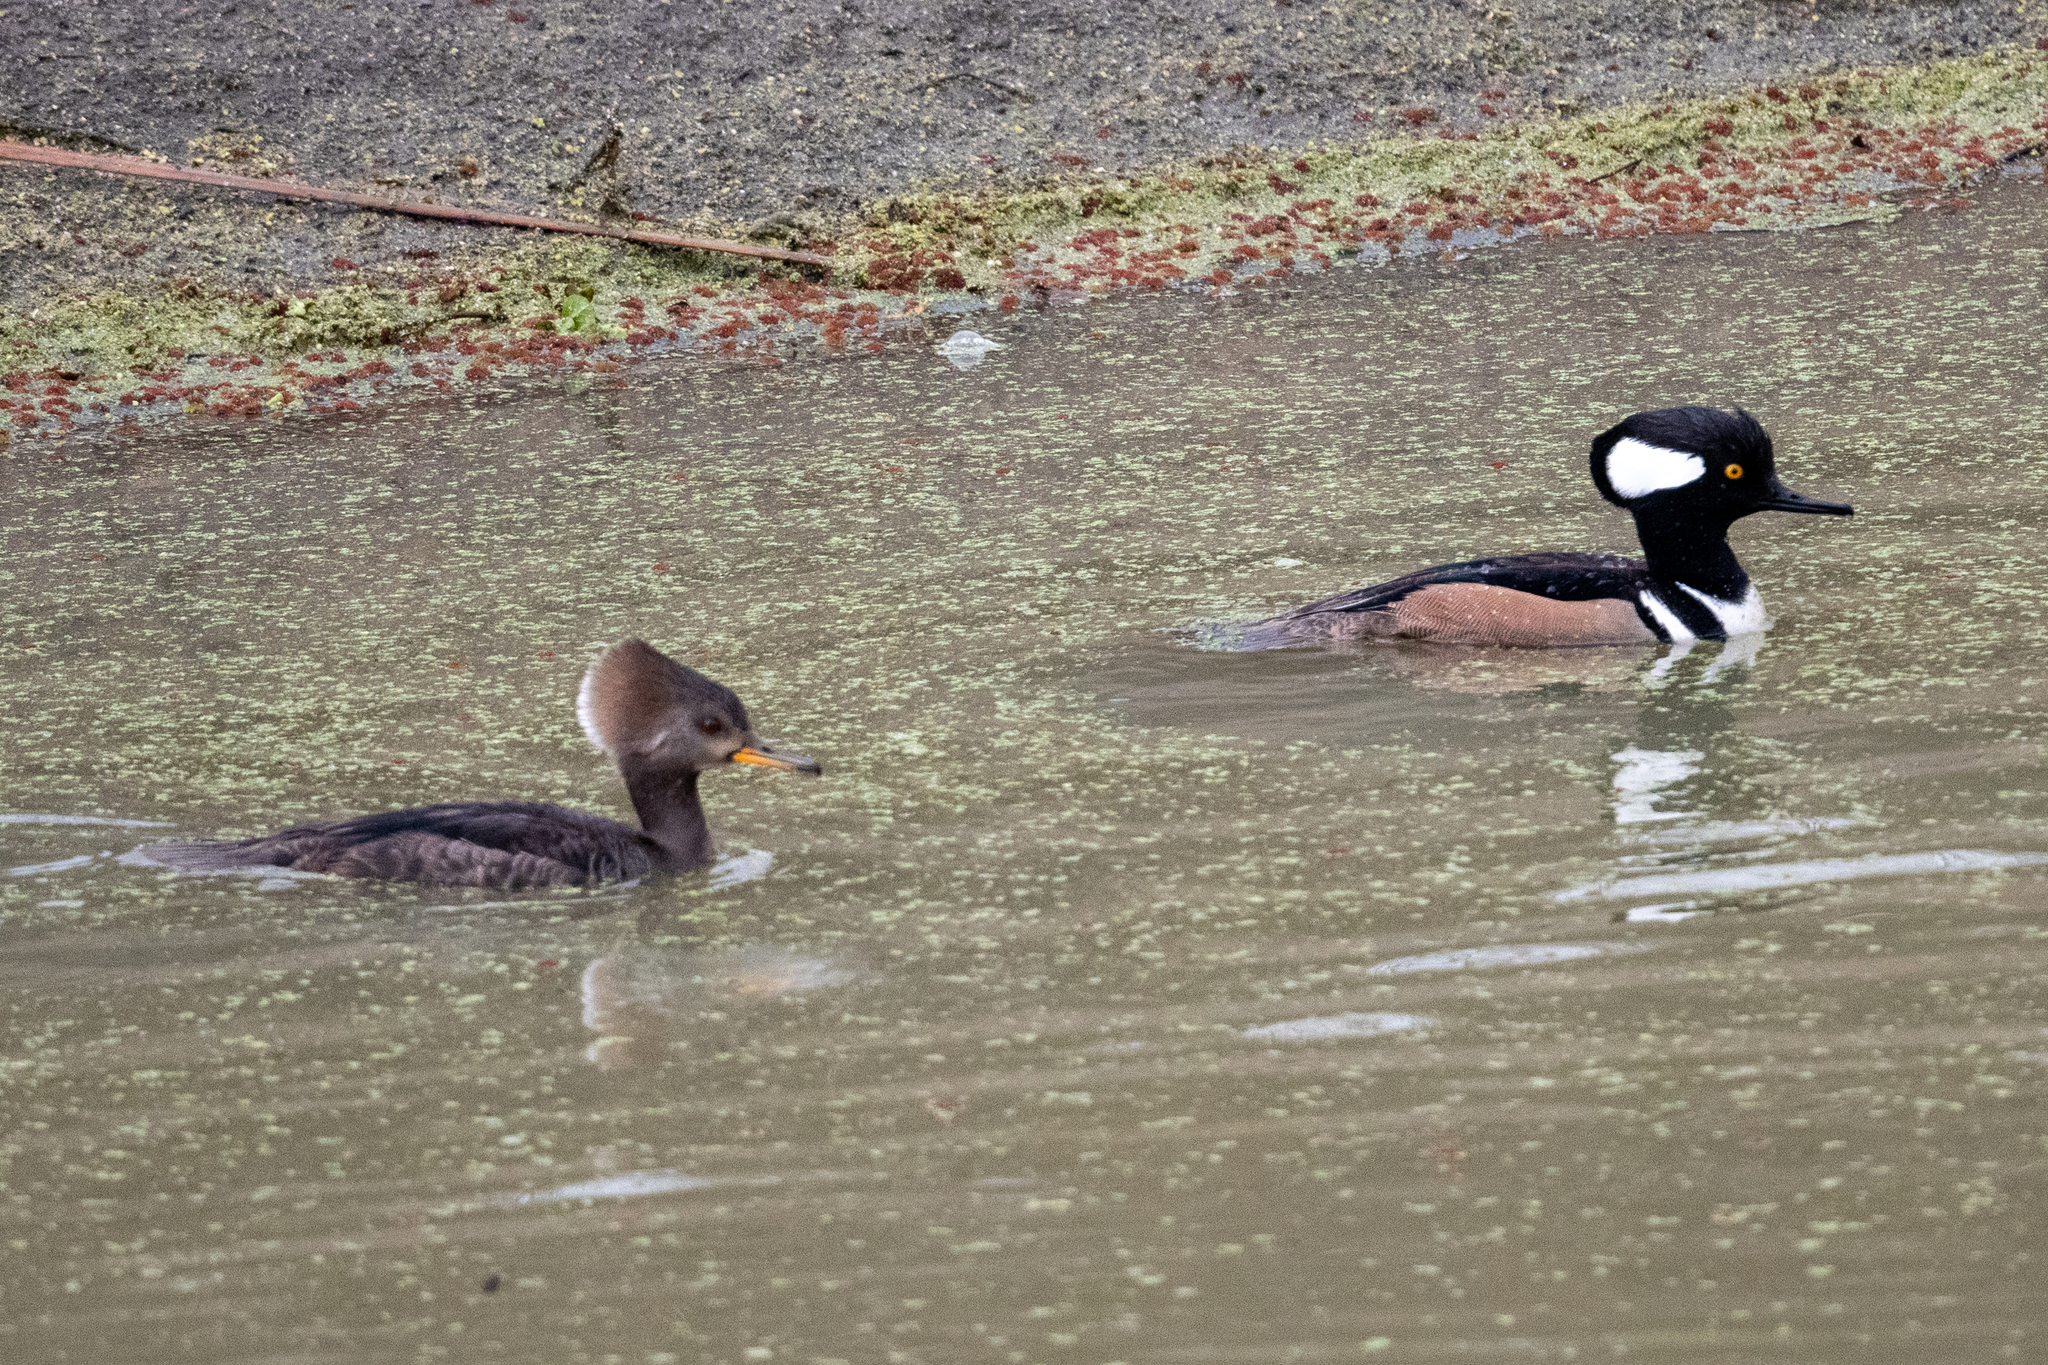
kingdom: Animalia
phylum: Chordata
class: Aves
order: Anseriformes
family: Anatidae
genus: Lophodytes
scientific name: Lophodytes cucullatus
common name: Hooded merganser
